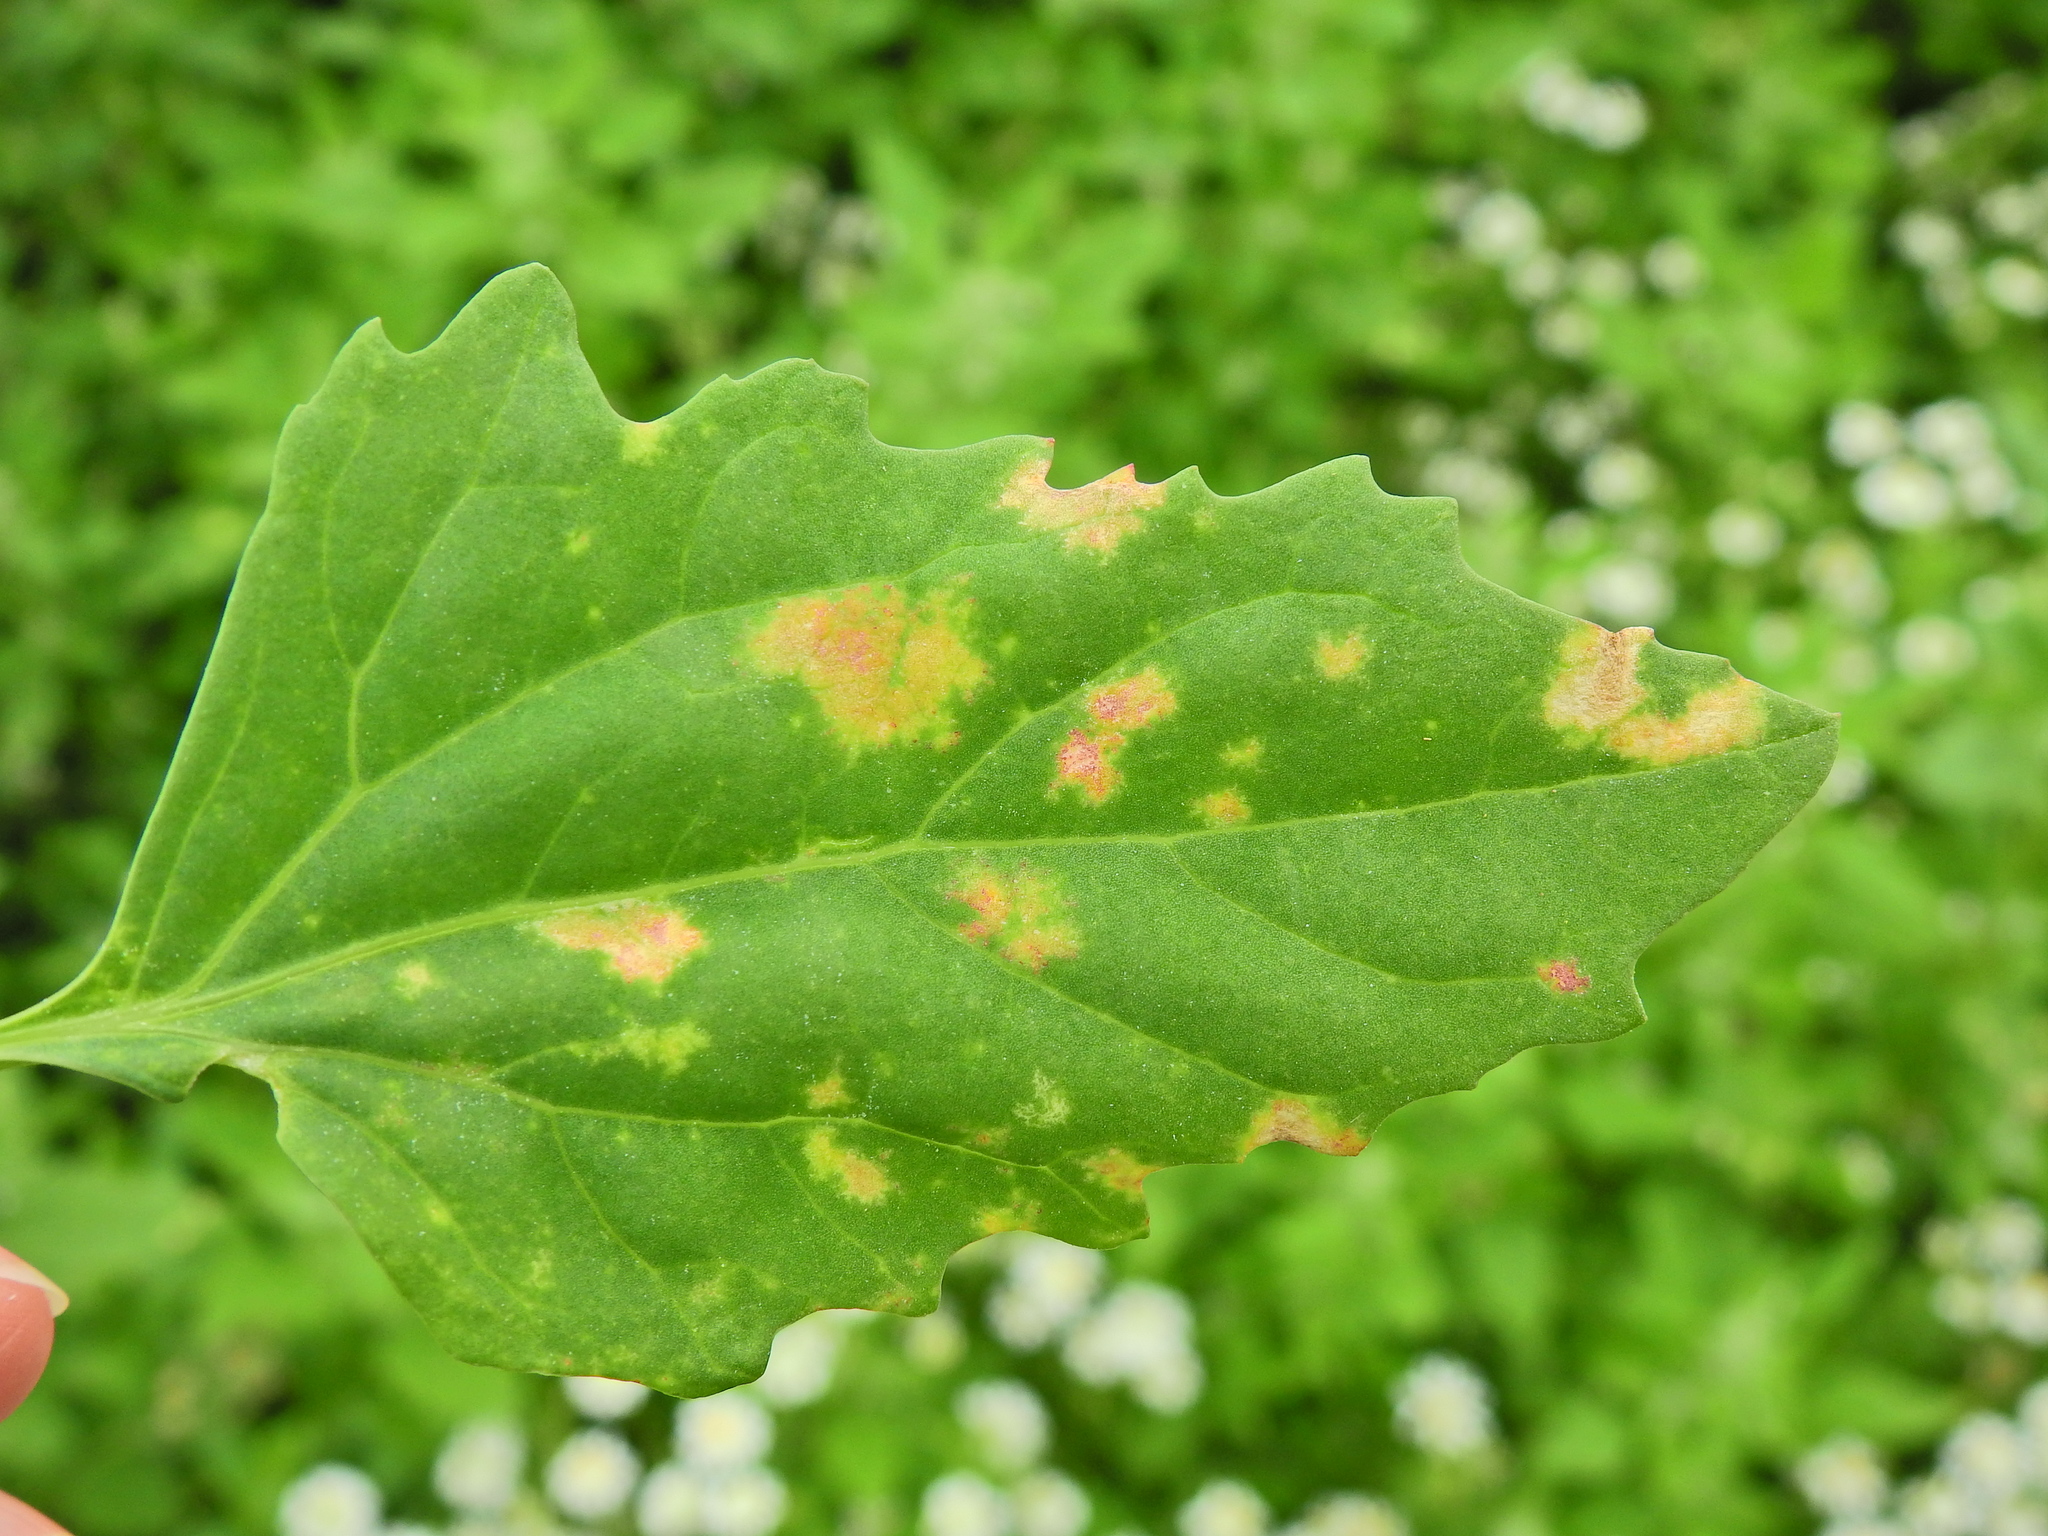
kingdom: Chromista
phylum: Oomycota
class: Peronosporea
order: Peronosporales
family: Peronosporaceae
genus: Peronospora
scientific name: Peronospora farinosa
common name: Beet downy mildew
